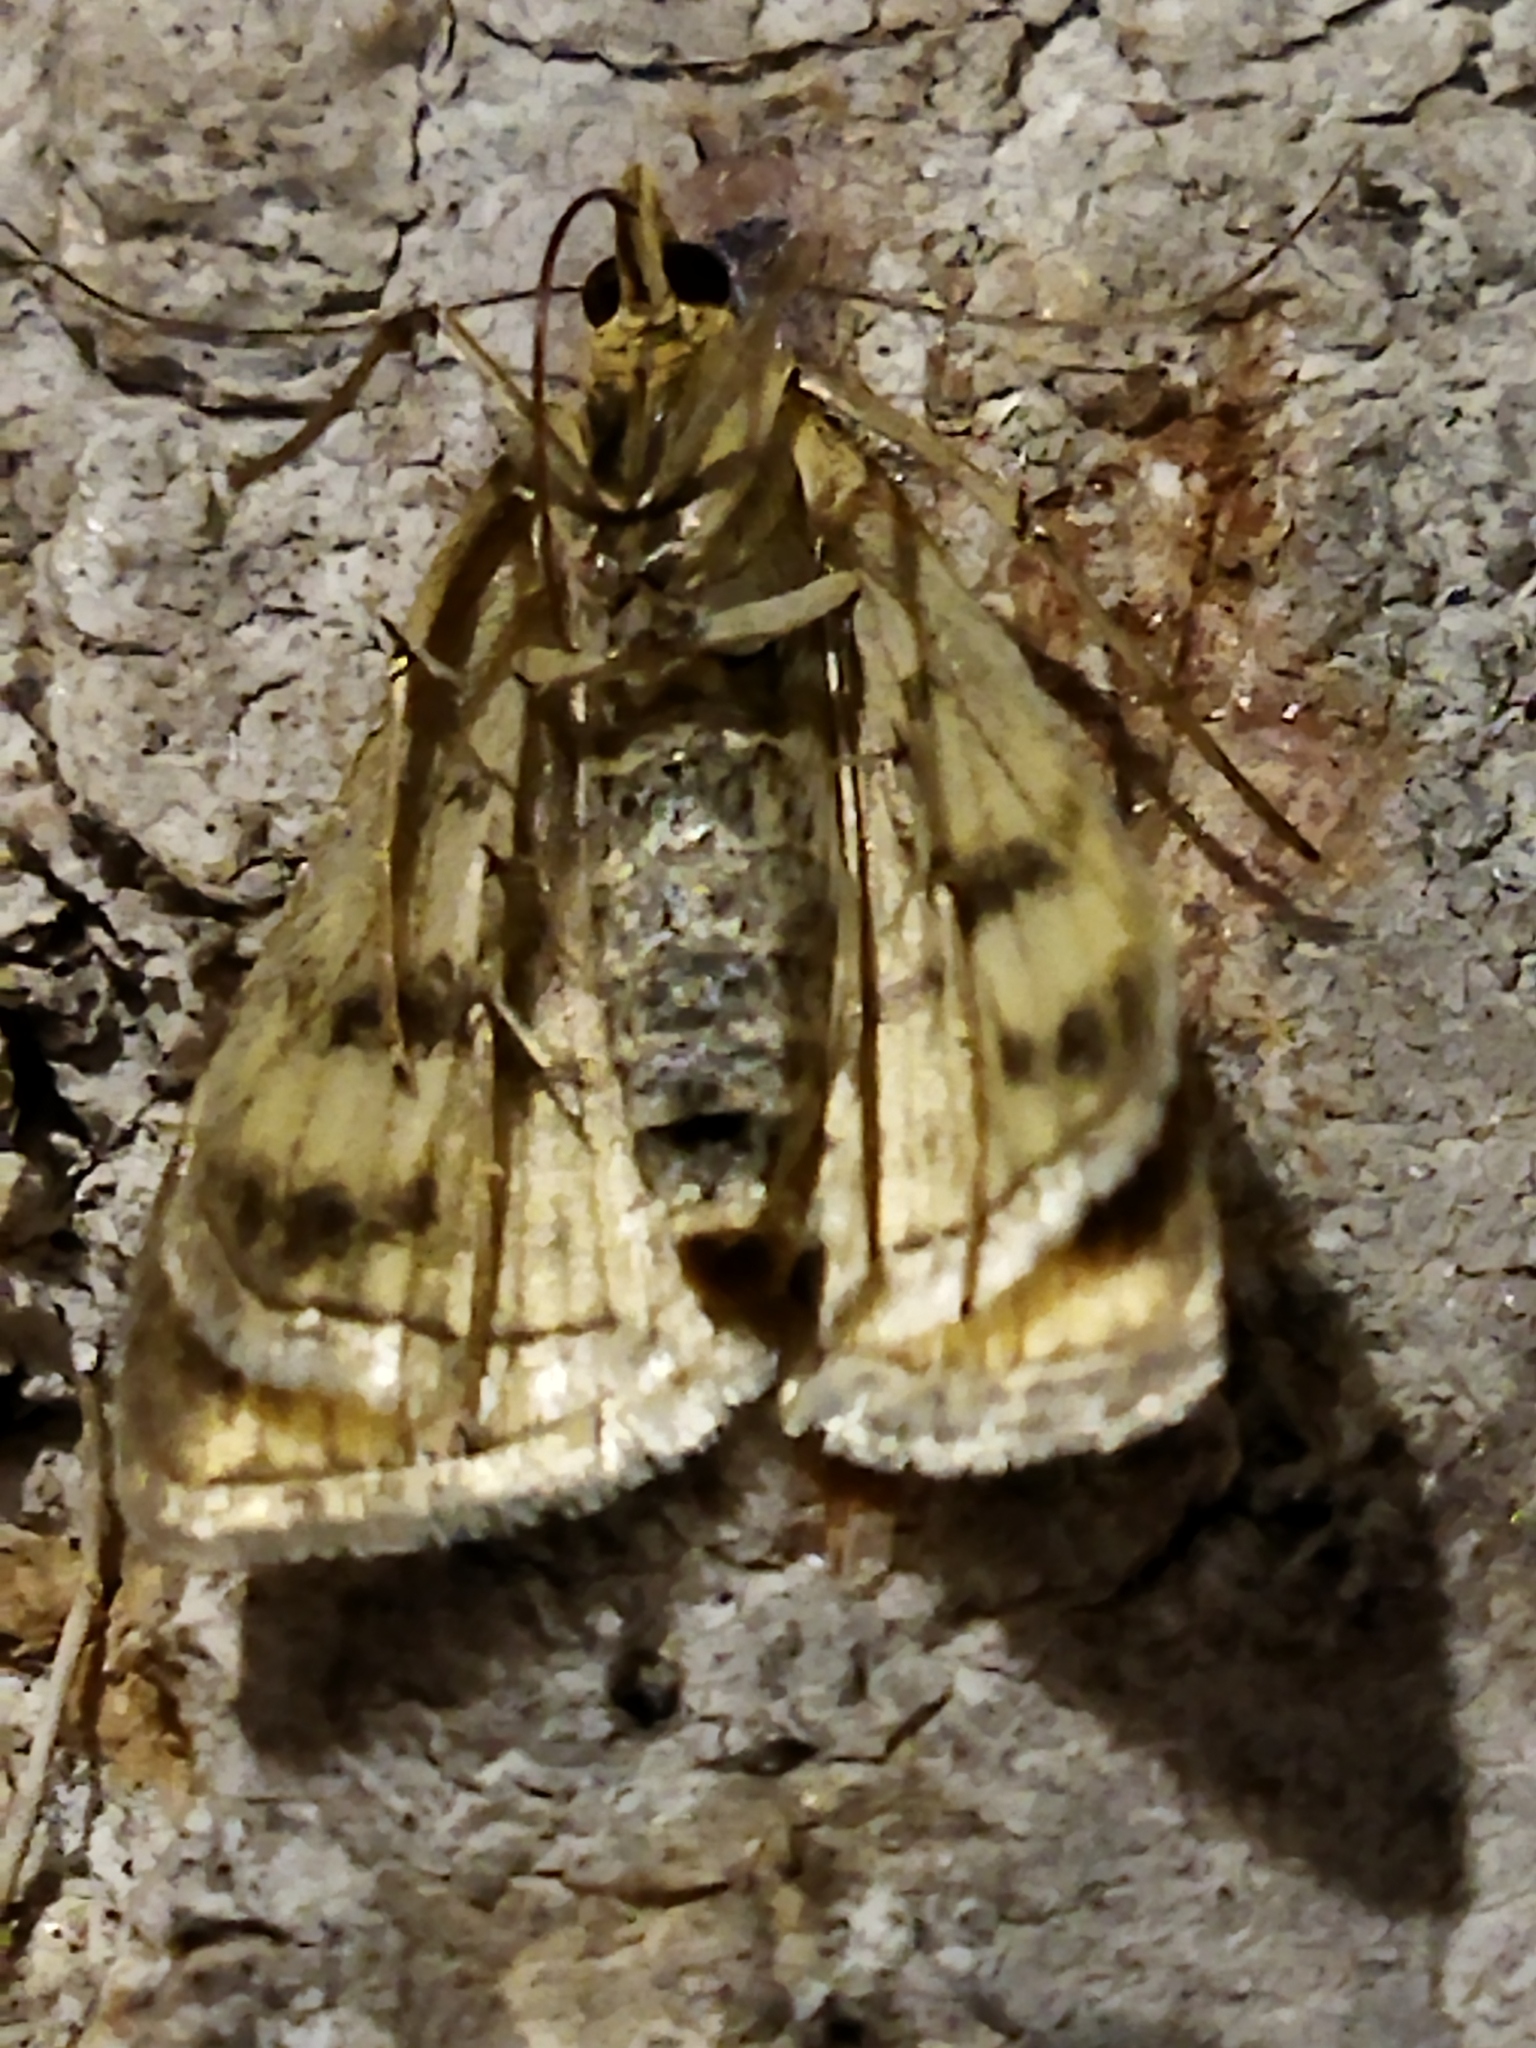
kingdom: Animalia
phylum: Arthropoda
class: Insecta
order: Lepidoptera
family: Crambidae
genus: Sitochroa
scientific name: Sitochroa verticalis
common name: Lesser pearl
